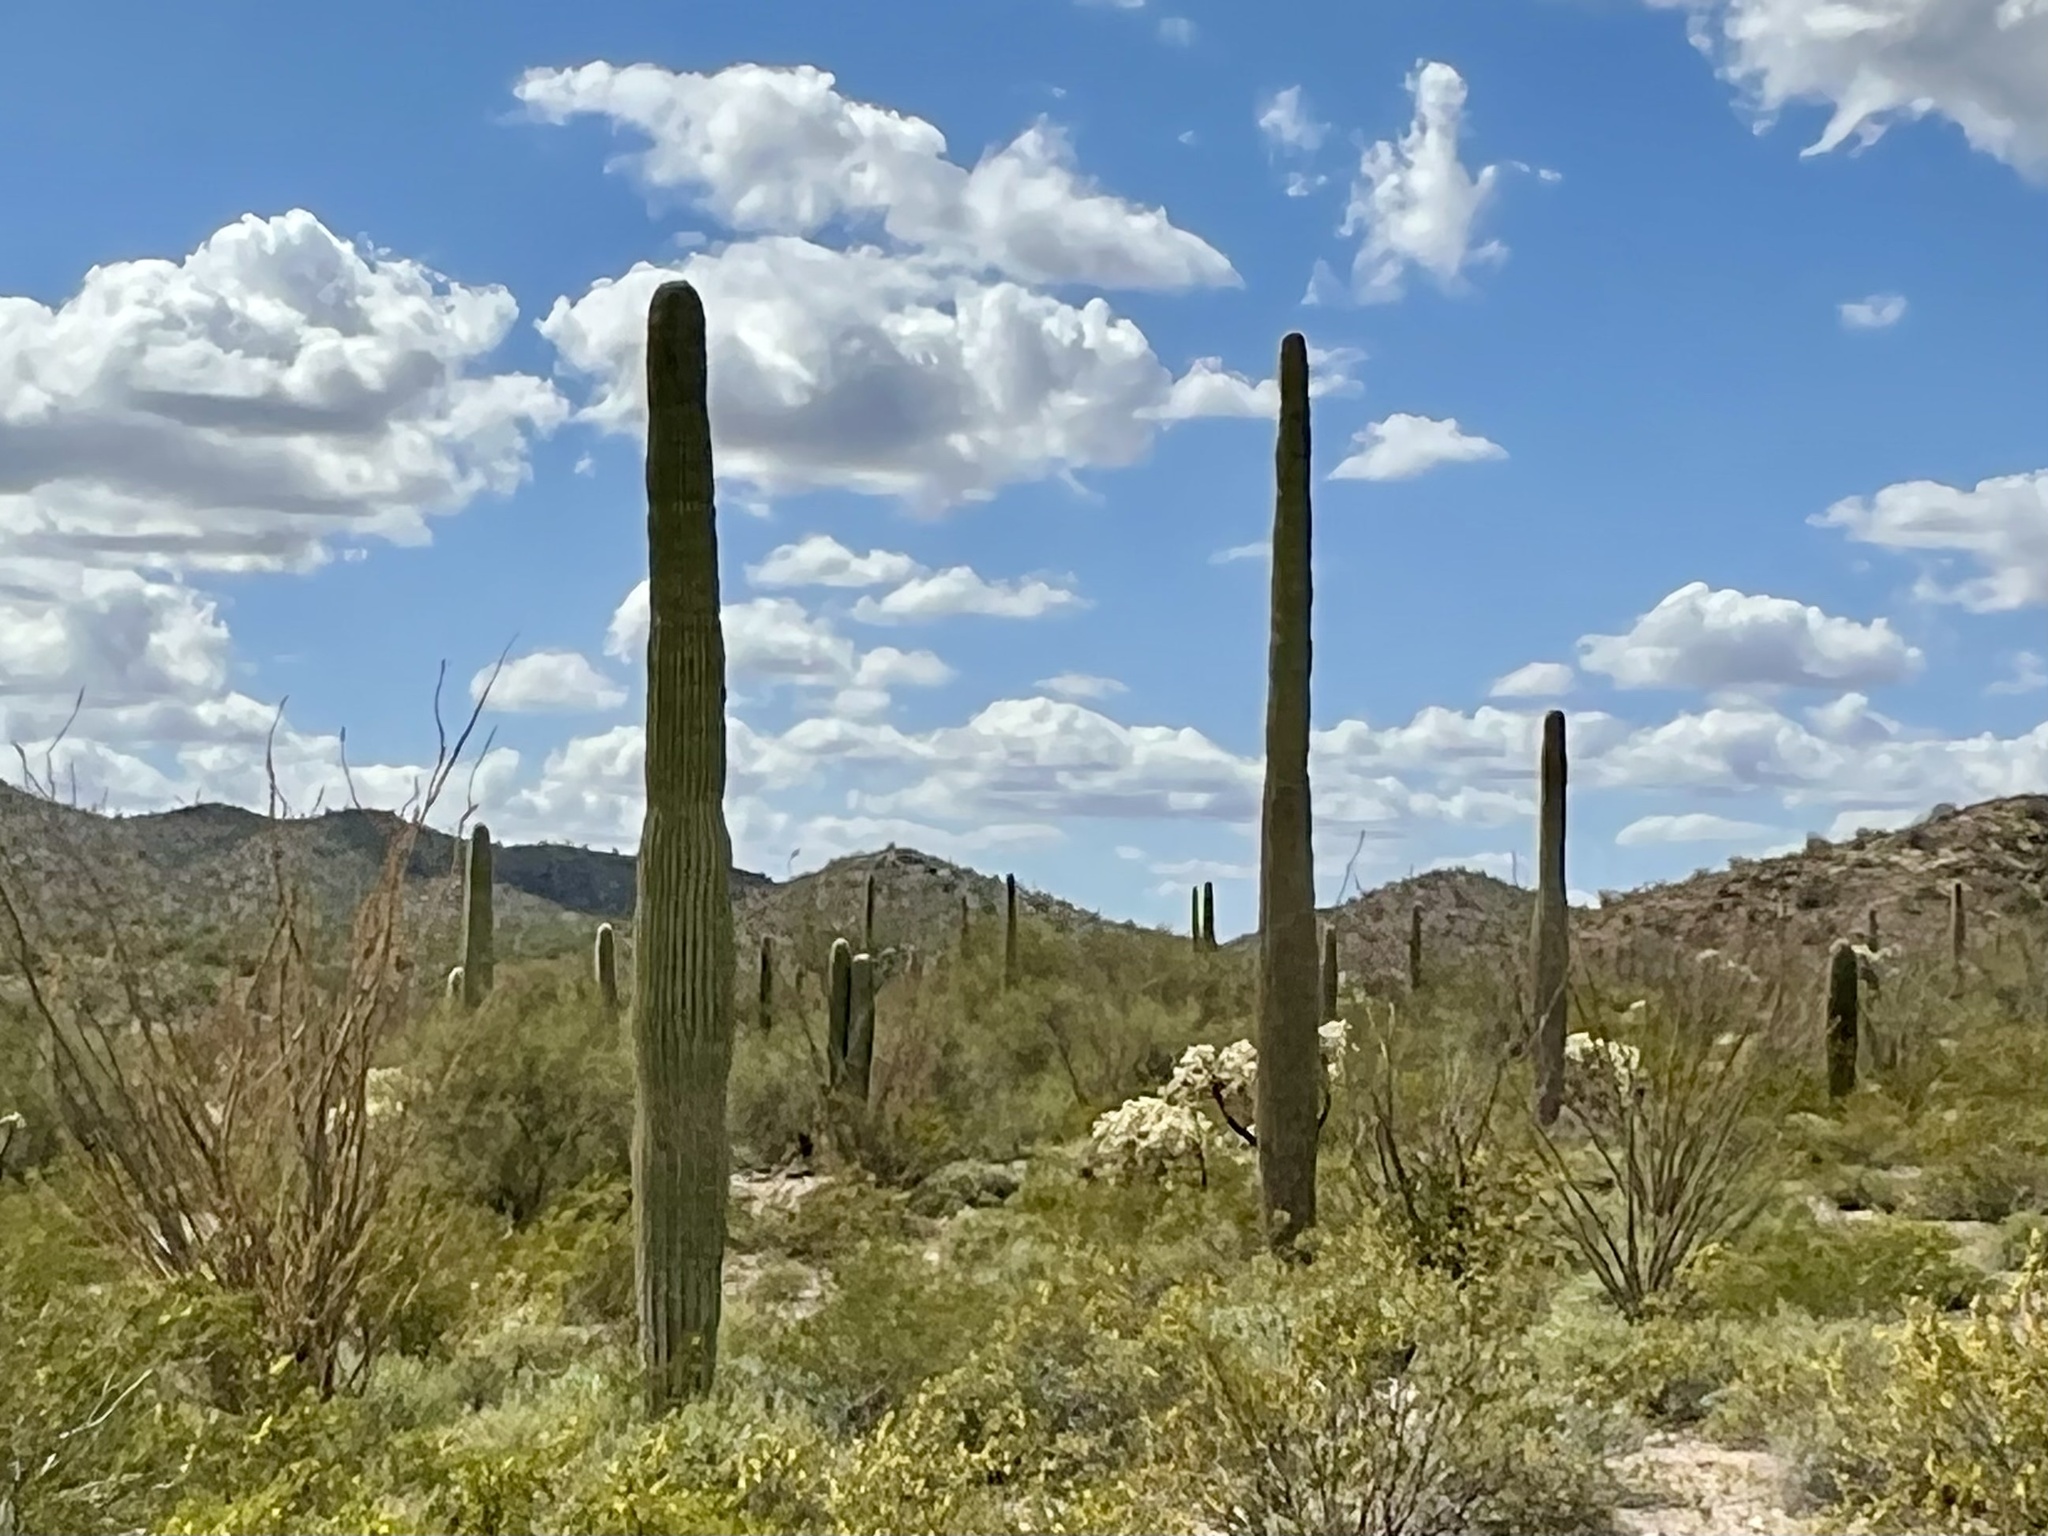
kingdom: Plantae
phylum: Tracheophyta
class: Magnoliopsida
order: Caryophyllales
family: Cactaceae
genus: Carnegiea
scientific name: Carnegiea gigantea
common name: Saguaro
